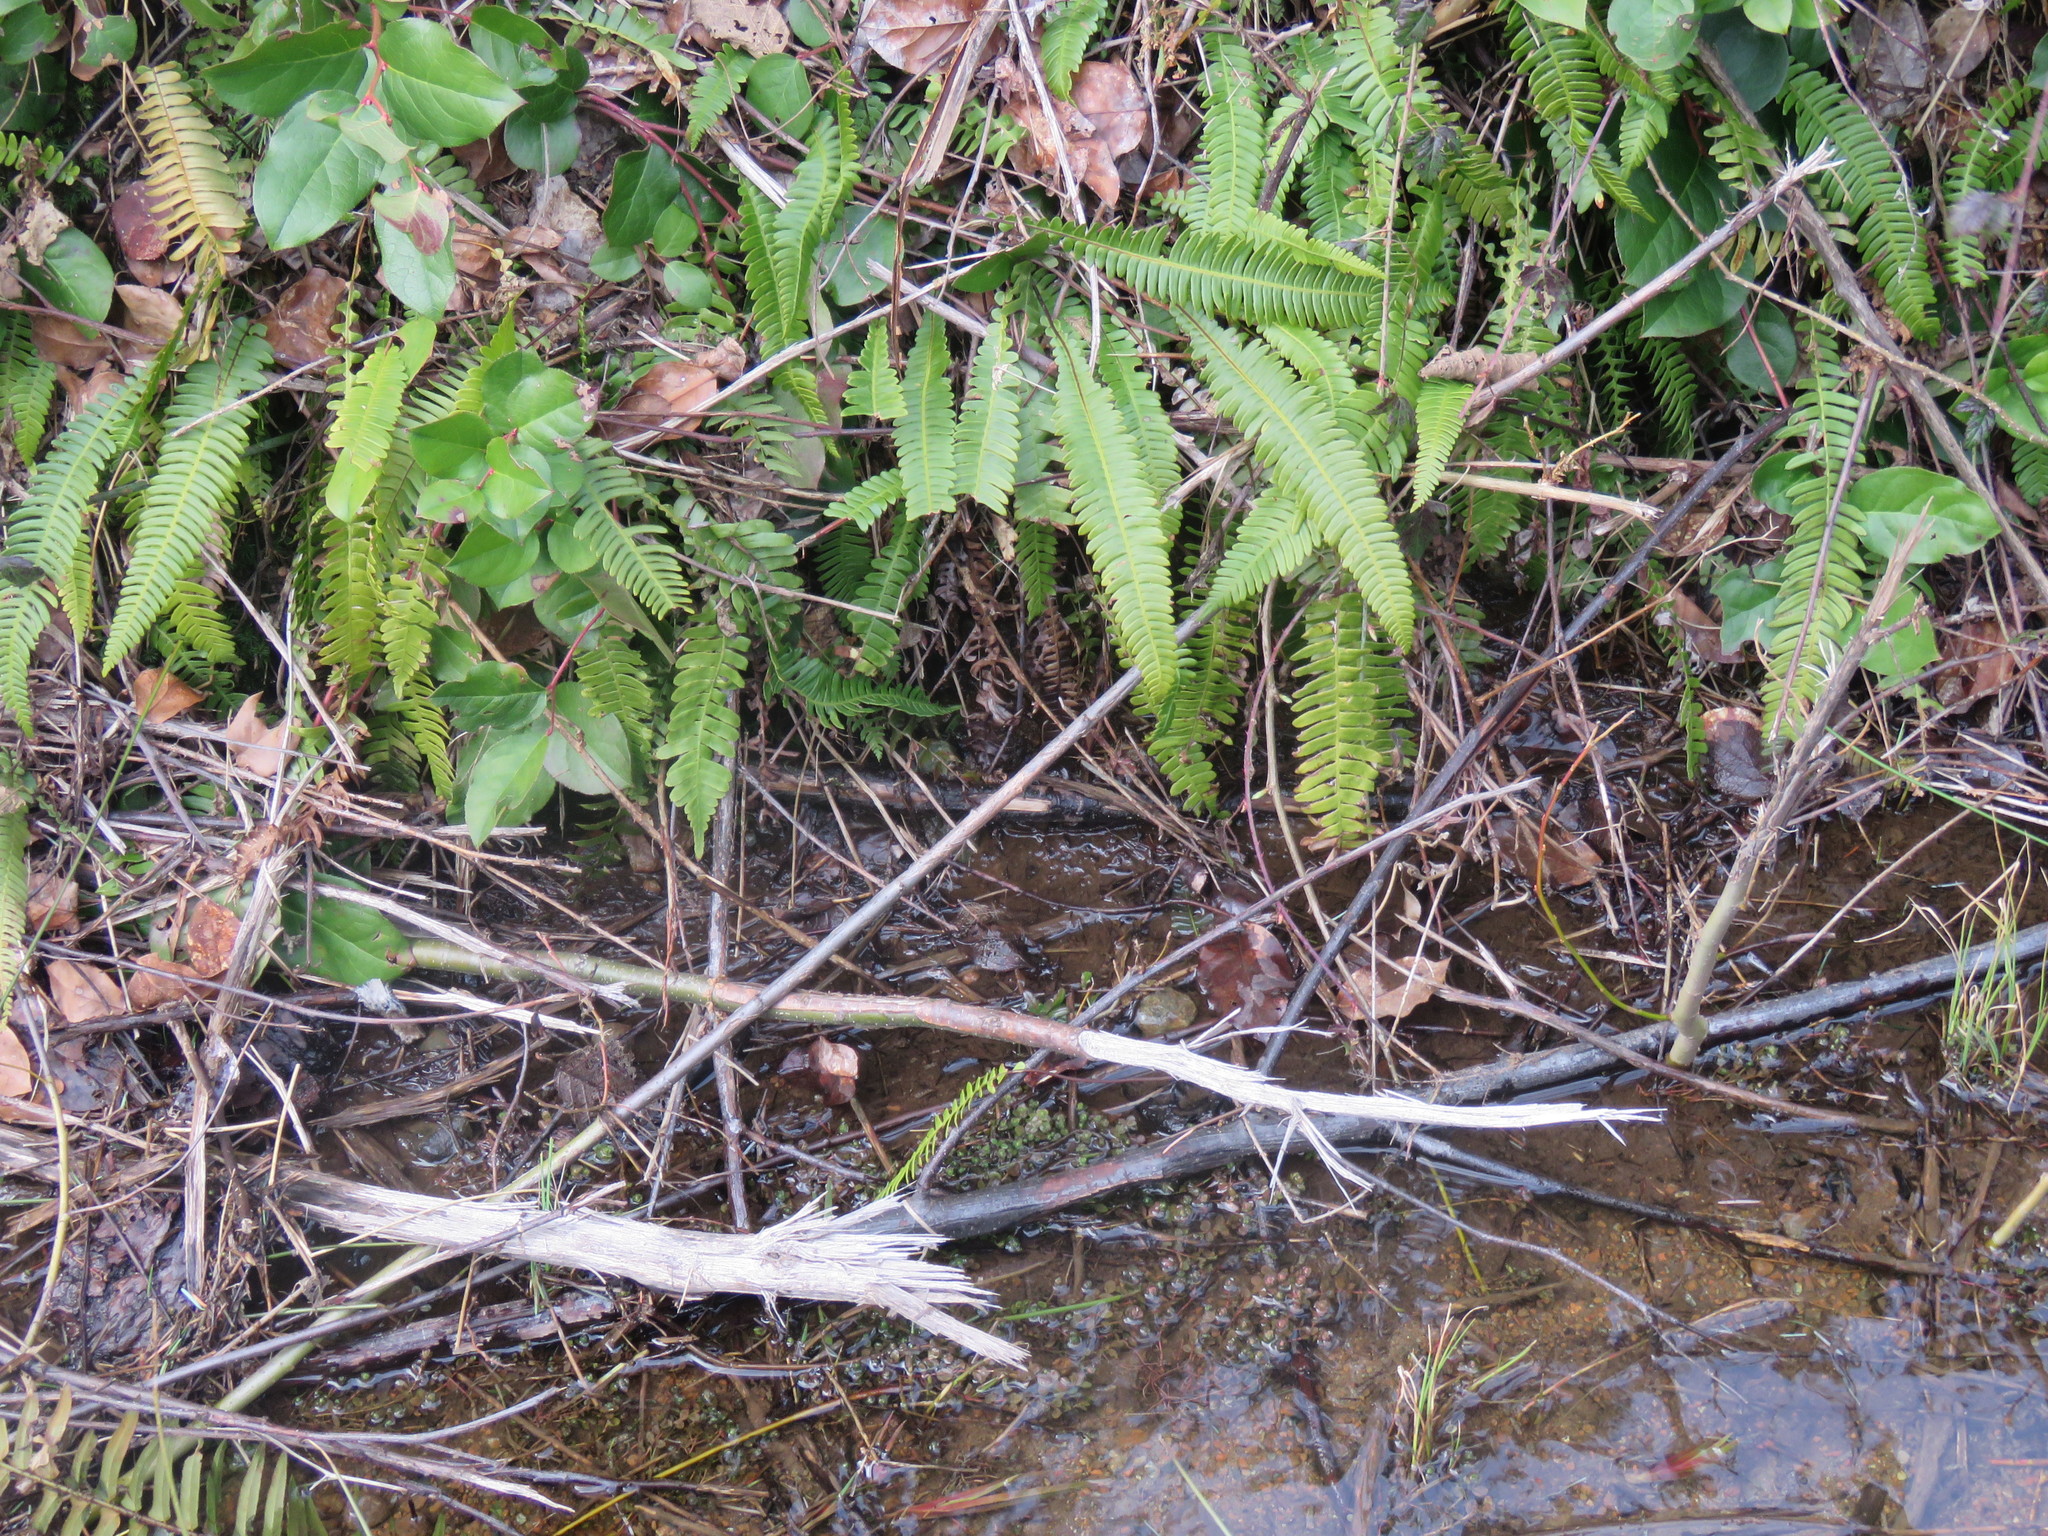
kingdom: Plantae
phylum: Tracheophyta
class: Polypodiopsida
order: Polypodiales
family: Blechnaceae
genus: Struthiopteris
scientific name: Struthiopteris spicant
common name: Deer fern
